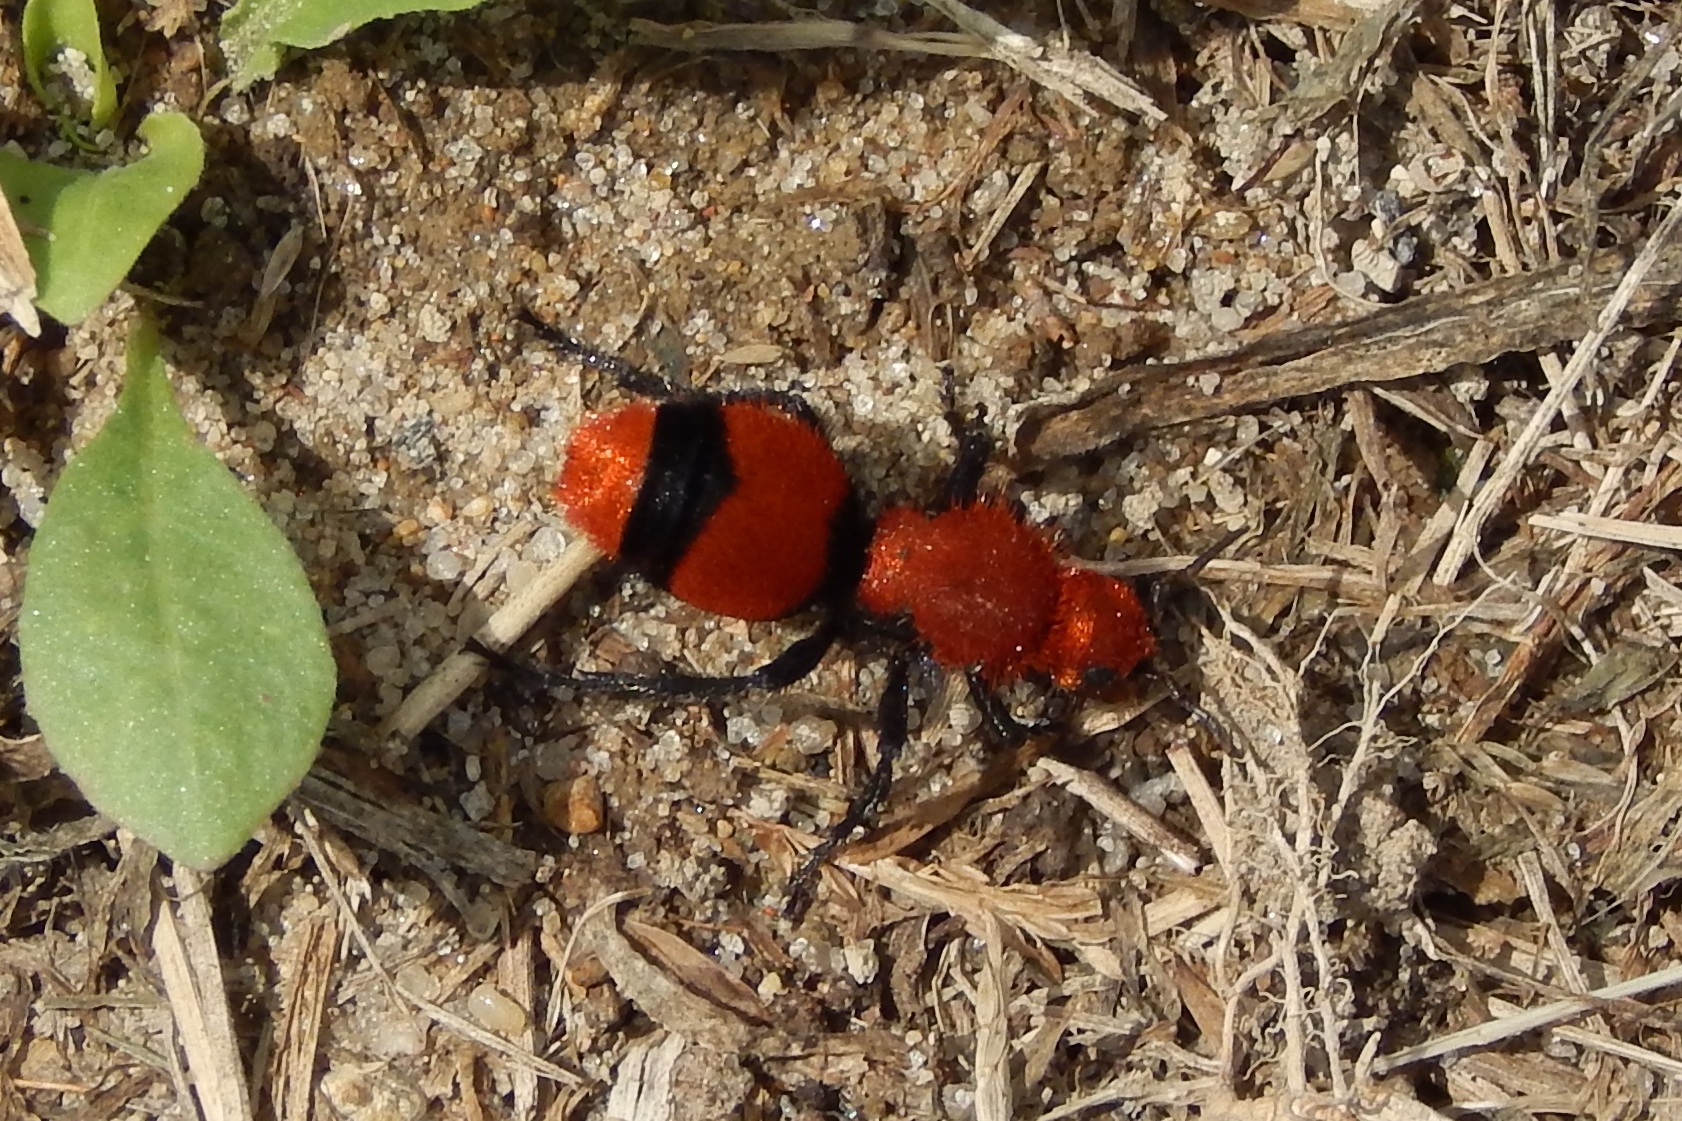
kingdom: Animalia
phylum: Arthropoda
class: Insecta
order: Hymenoptera
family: Mutillidae
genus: Dasymutilla
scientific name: Dasymutilla occidentalis
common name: Common eastern velvet ant
